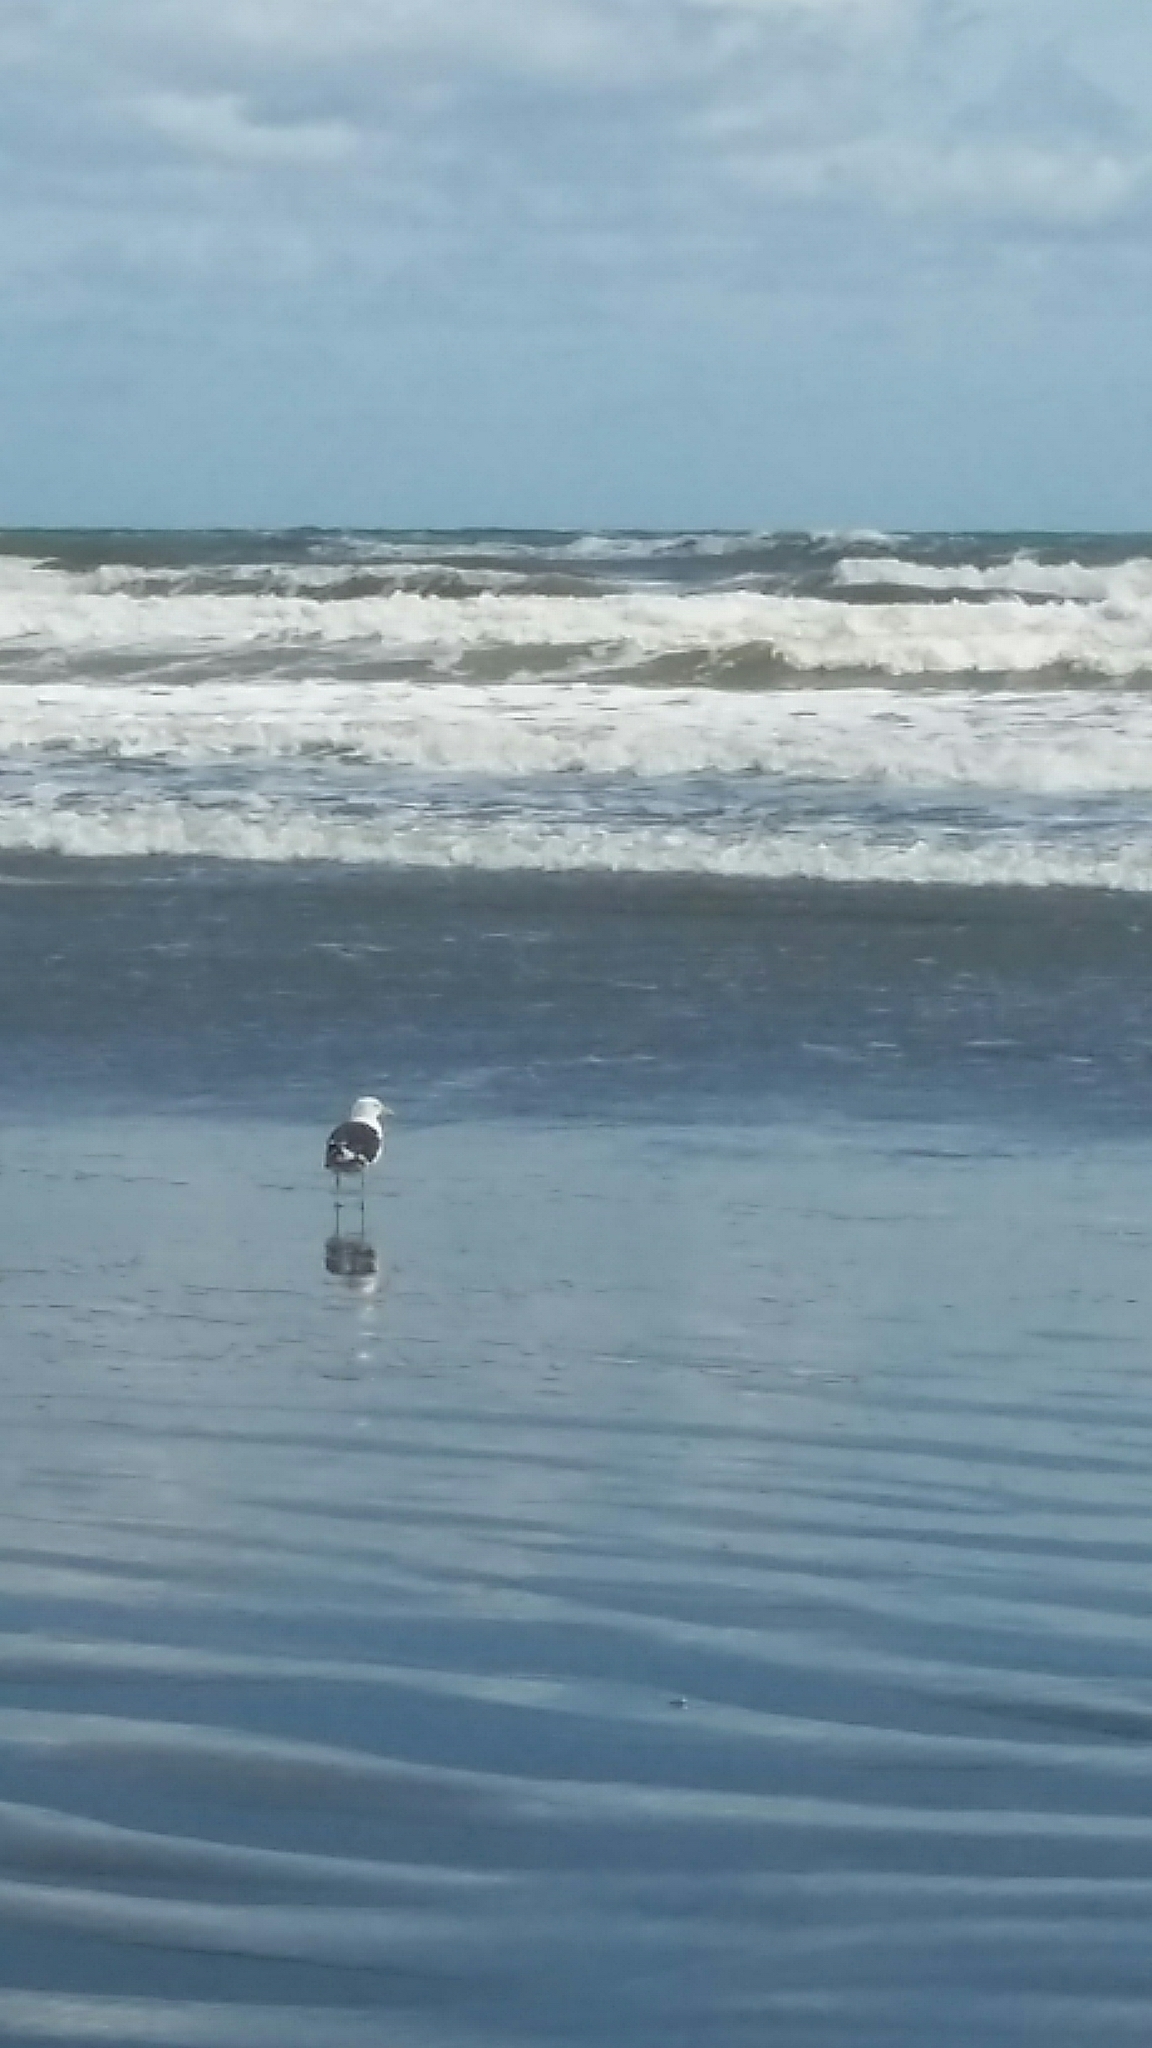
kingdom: Animalia
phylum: Chordata
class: Aves
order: Charadriiformes
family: Laridae
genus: Larus
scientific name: Larus dominicanus
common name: Kelp gull
